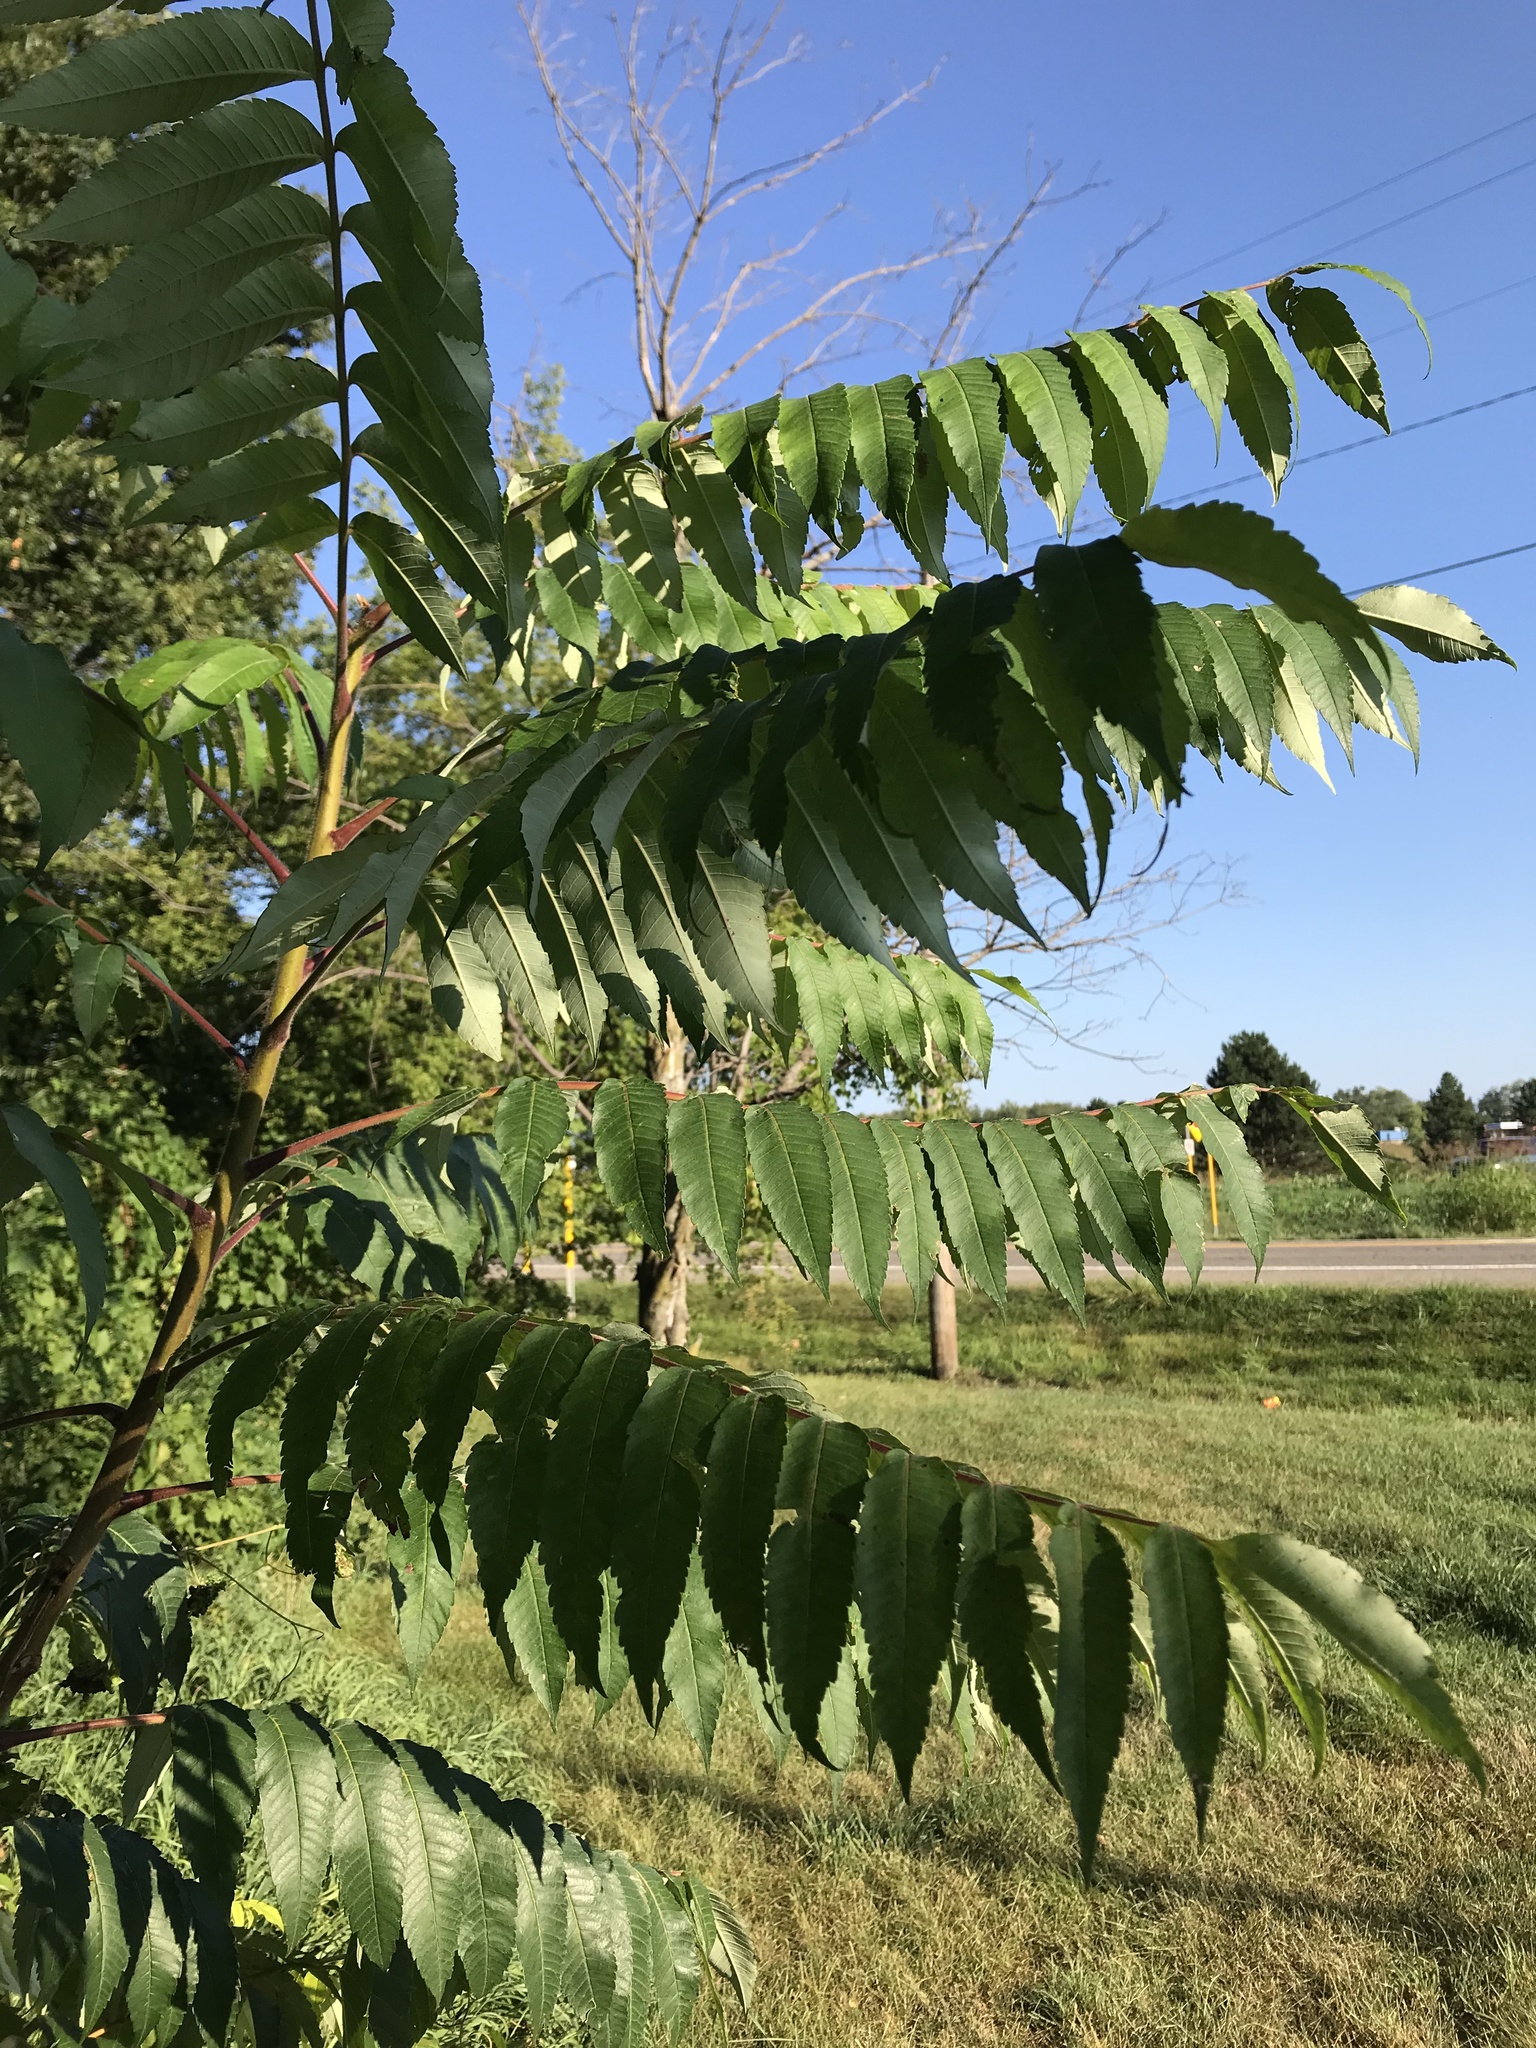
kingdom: Plantae
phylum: Tracheophyta
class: Magnoliopsida
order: Sapindales
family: Anacardiaceae
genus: Rhus
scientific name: Rhus typhina
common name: Staghorn sumac
